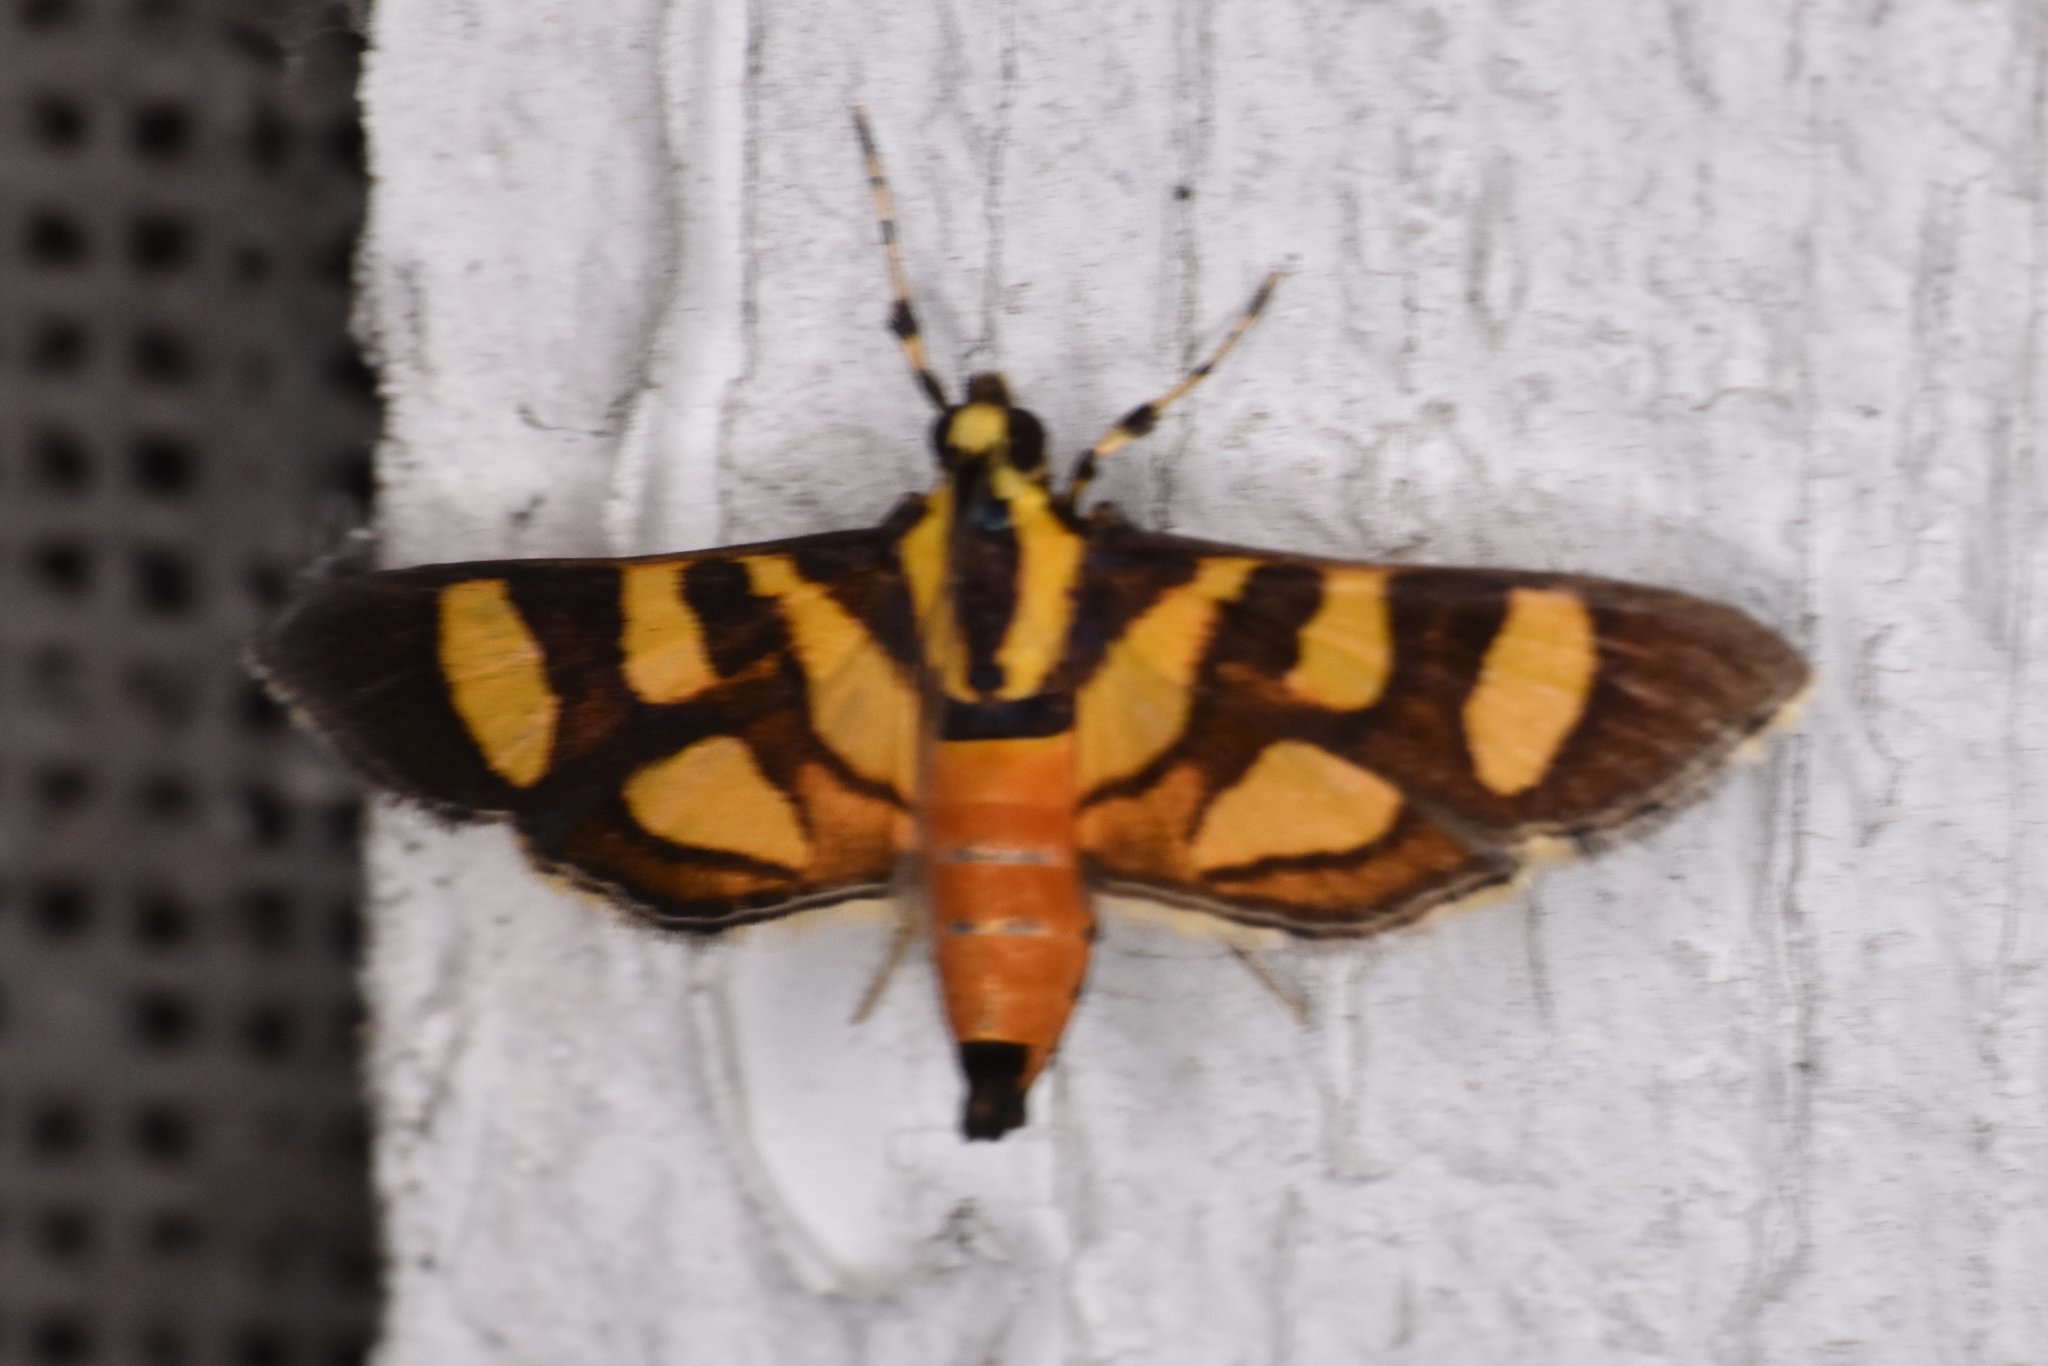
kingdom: Animalia
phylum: Arthropoda
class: Insecta
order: Lepidoptera
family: Crambidae
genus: Syngamia
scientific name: Syngamia florella
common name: Orange-spotted flower moth
